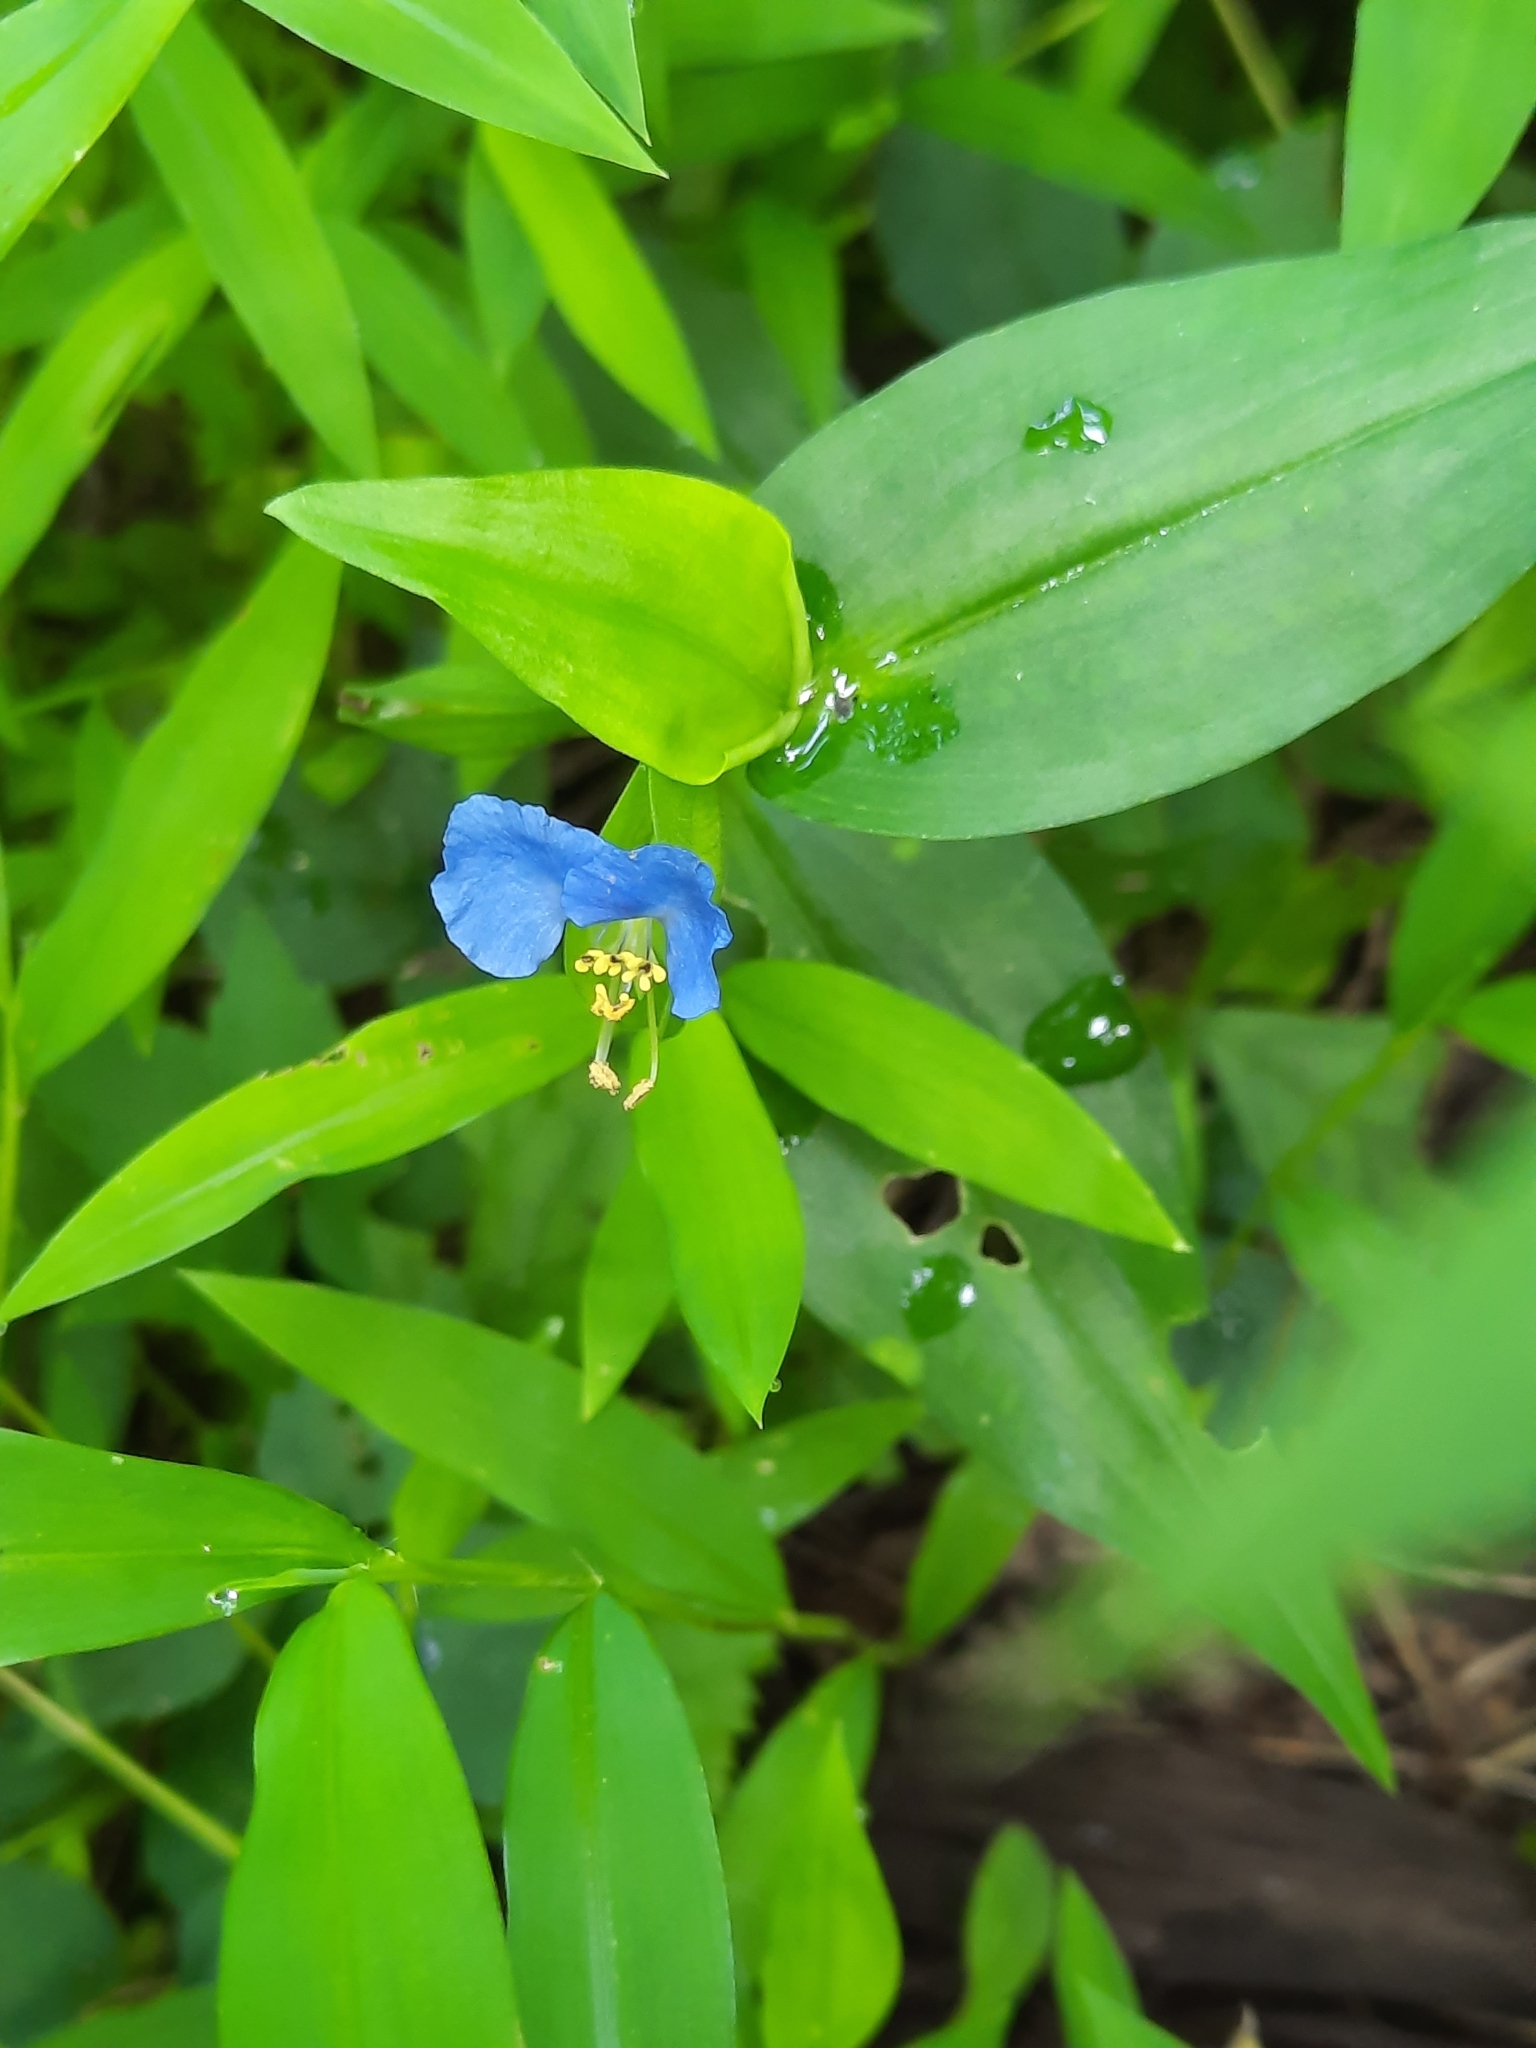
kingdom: Plantae
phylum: Tracheophyta
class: Liliopsida
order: Commelinales
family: Commelinaceae
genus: Commelina
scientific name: Commelina communis
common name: Asiatic dayflower
